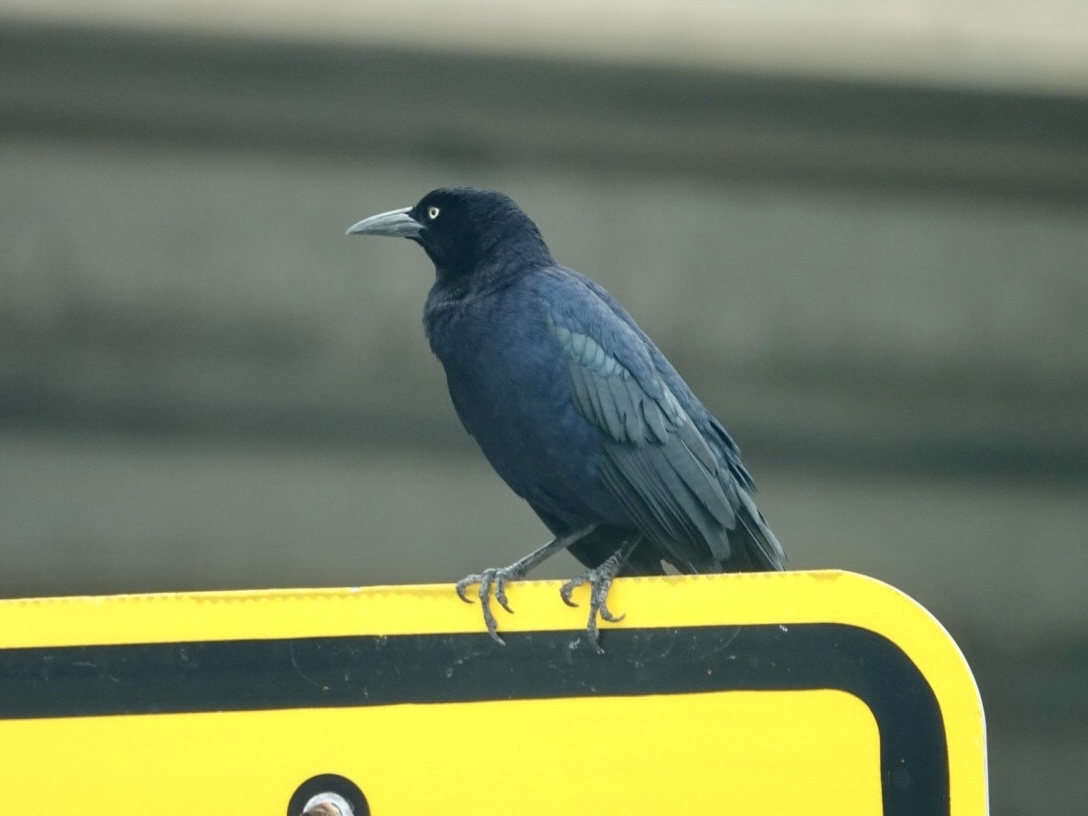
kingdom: Animalia
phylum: Chordata
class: Aves
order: Passeriformes
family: Icteridae
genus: Quiscalus
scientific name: Quiscalus mexicanus
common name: Great-tailed grackle
